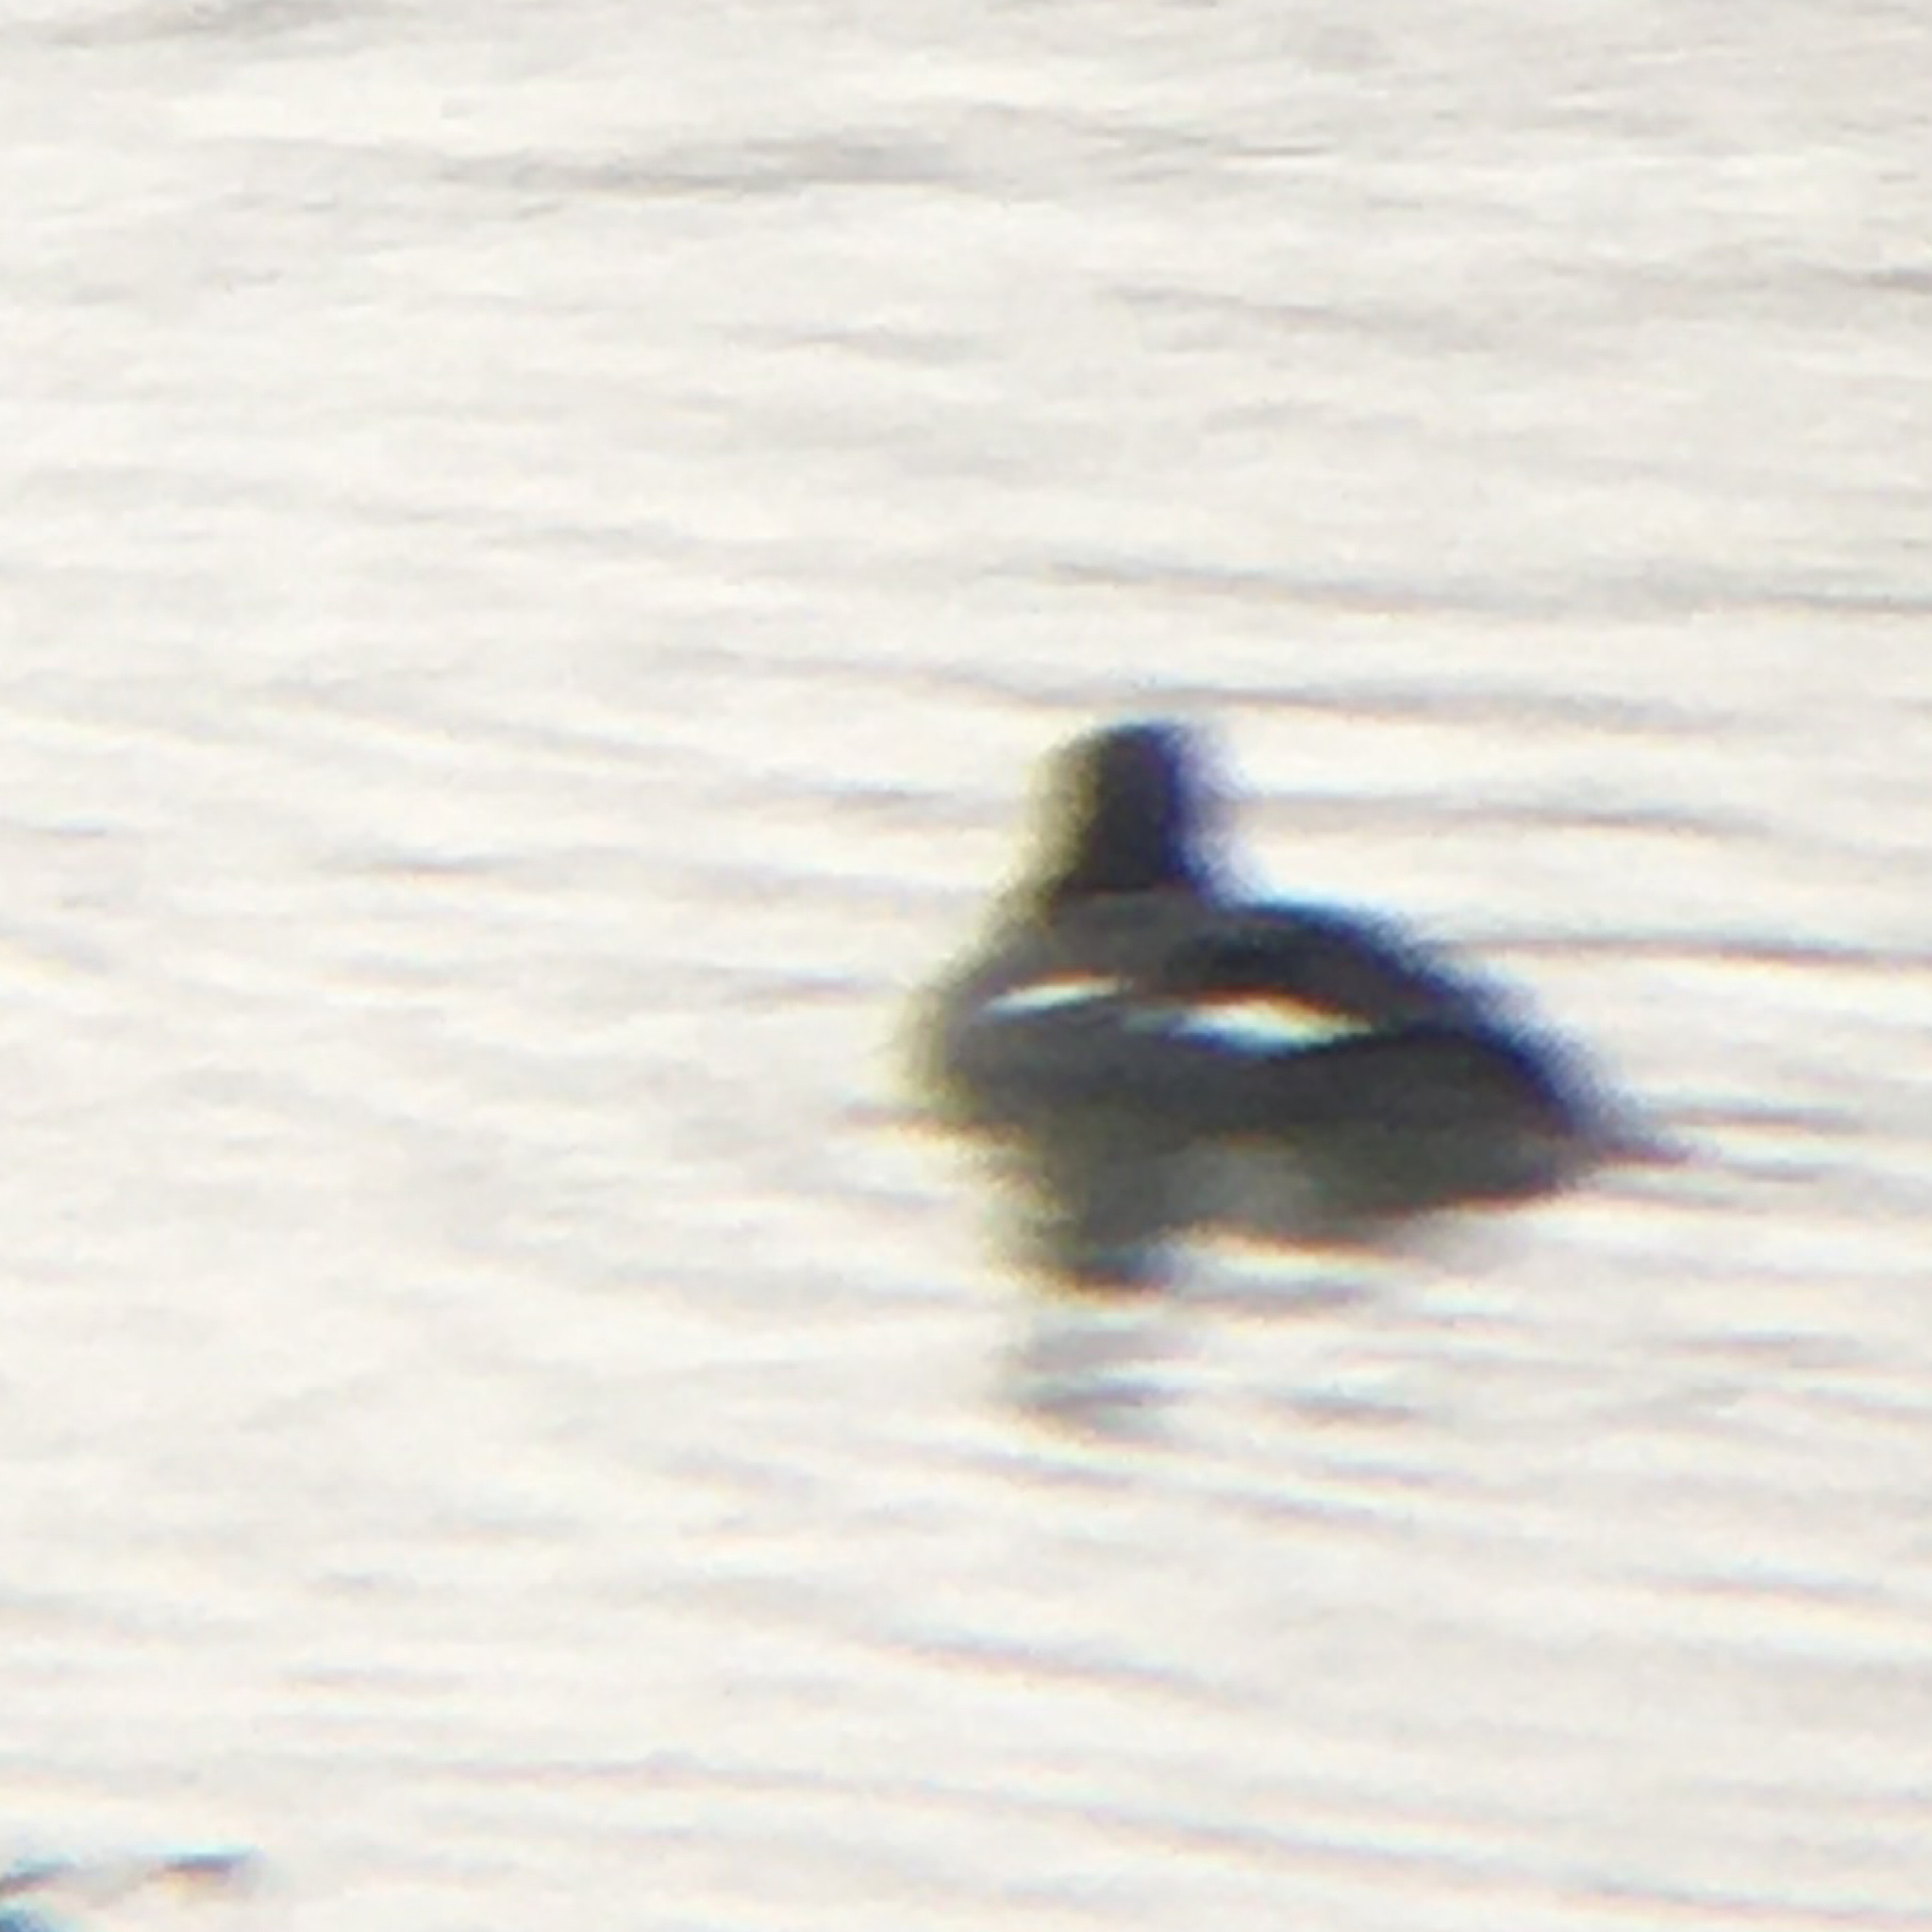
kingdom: Animalia
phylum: Chordata
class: Aves
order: Anseriformes
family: Anatidae
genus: Bucephala
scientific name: Bucephala clangula
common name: Common goldeneye
